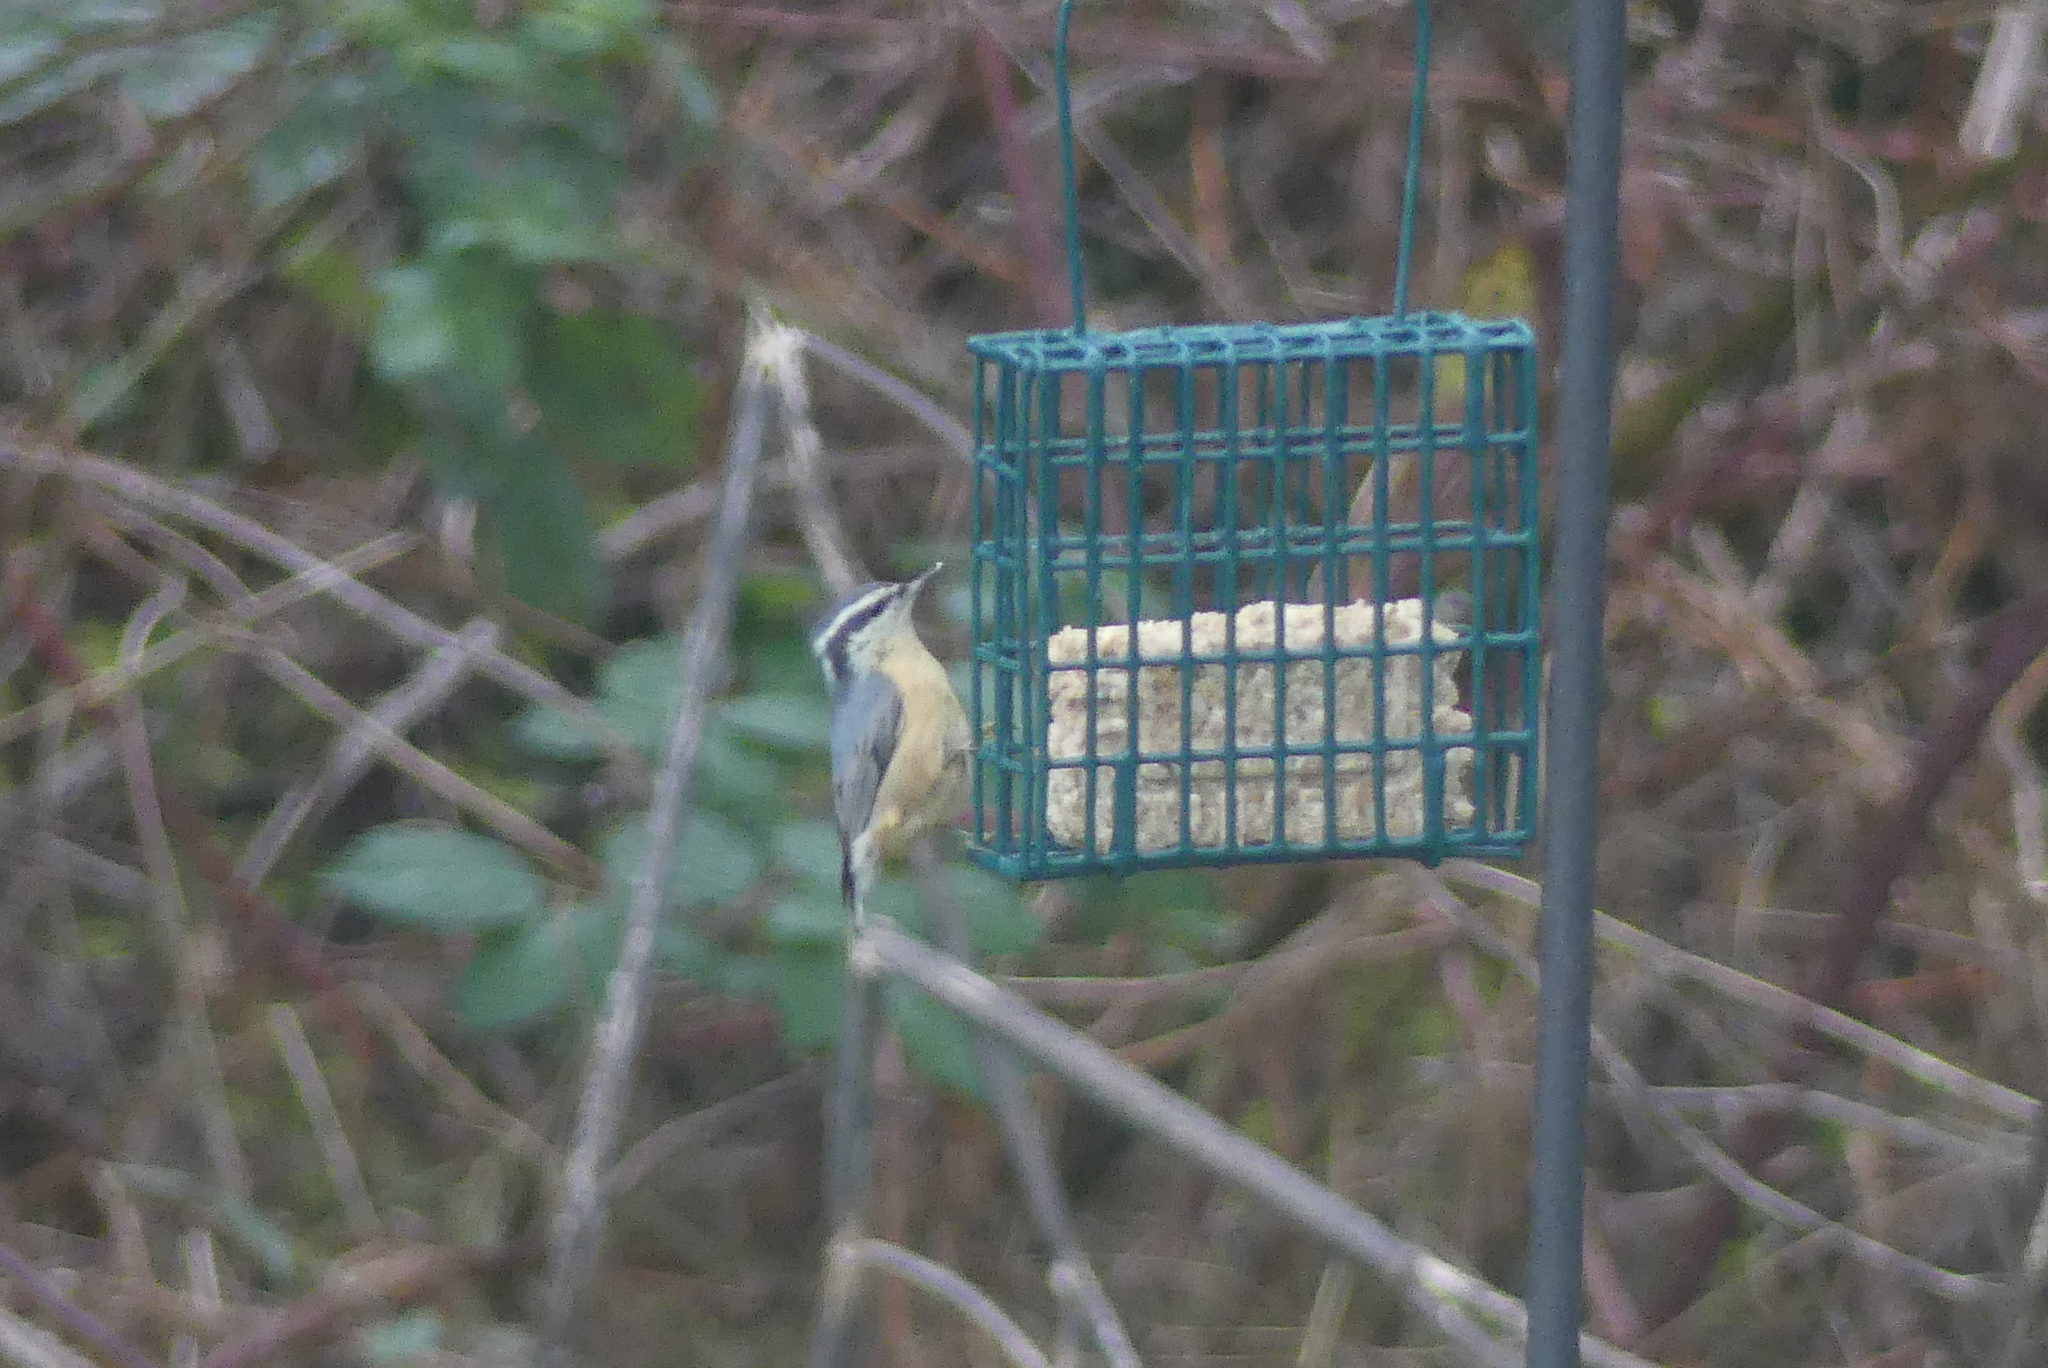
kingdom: Animalia
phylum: Chordata
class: Aves
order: Passeriformes
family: Sittidae
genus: Sitta
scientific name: Sitta canadensis
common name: Red-breasted nuthatch
